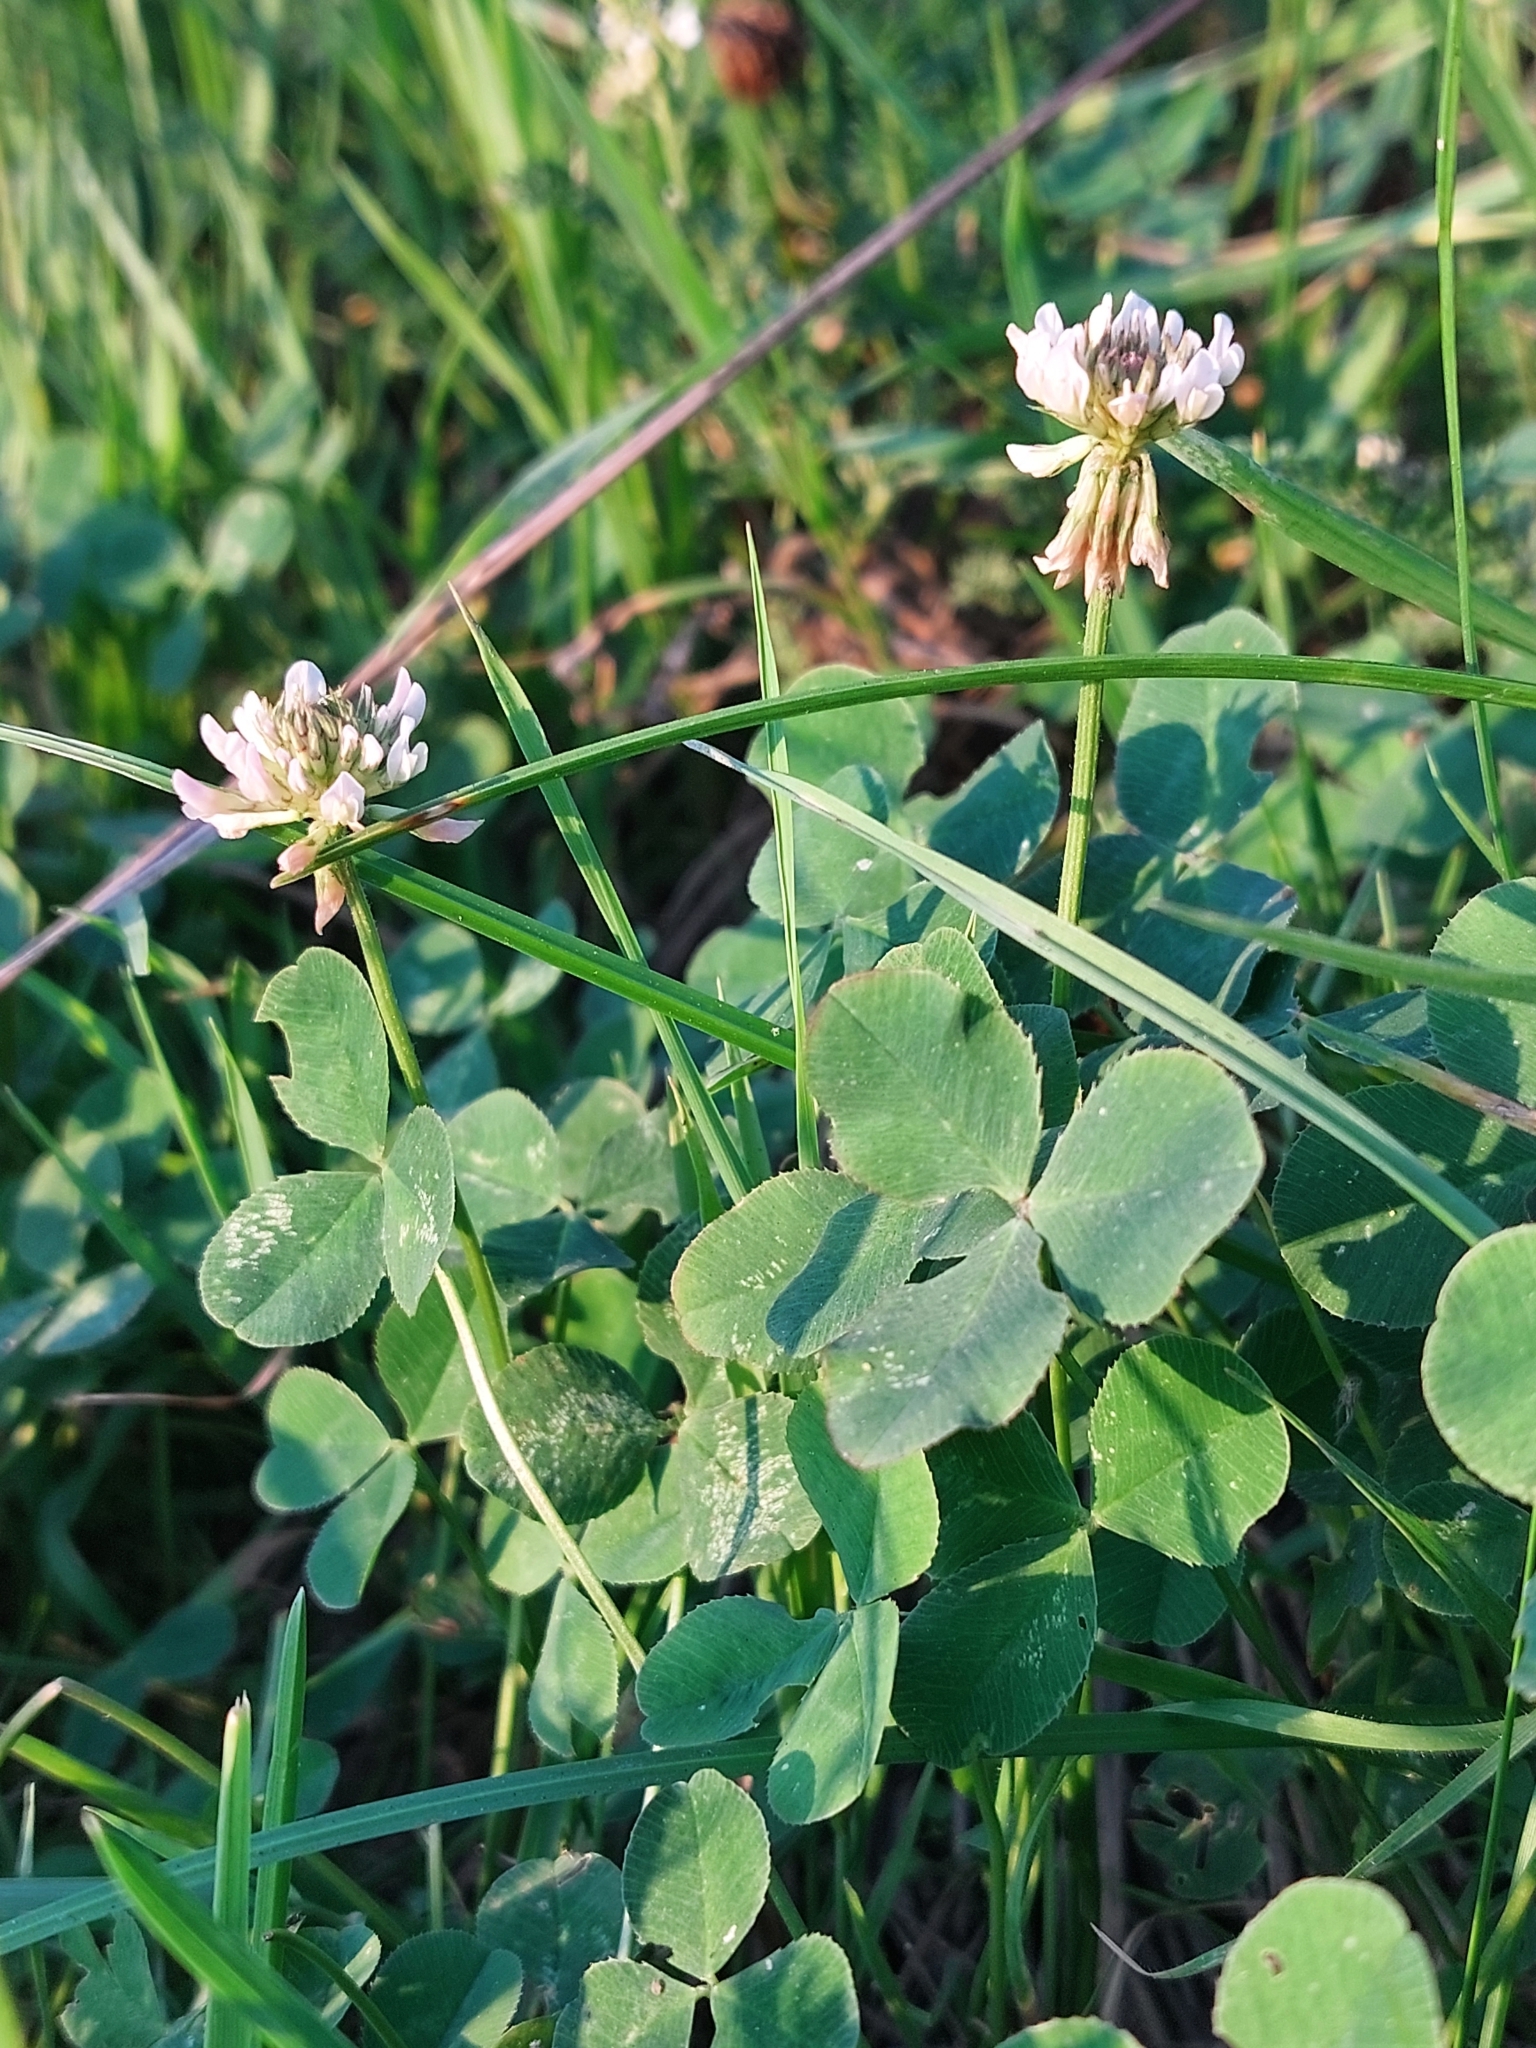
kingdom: Plantae
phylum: Tracheophyta
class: Magnoliopsida
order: Fabales
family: Fabaceae
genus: Trifolium
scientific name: Trifolium repens
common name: White clover
